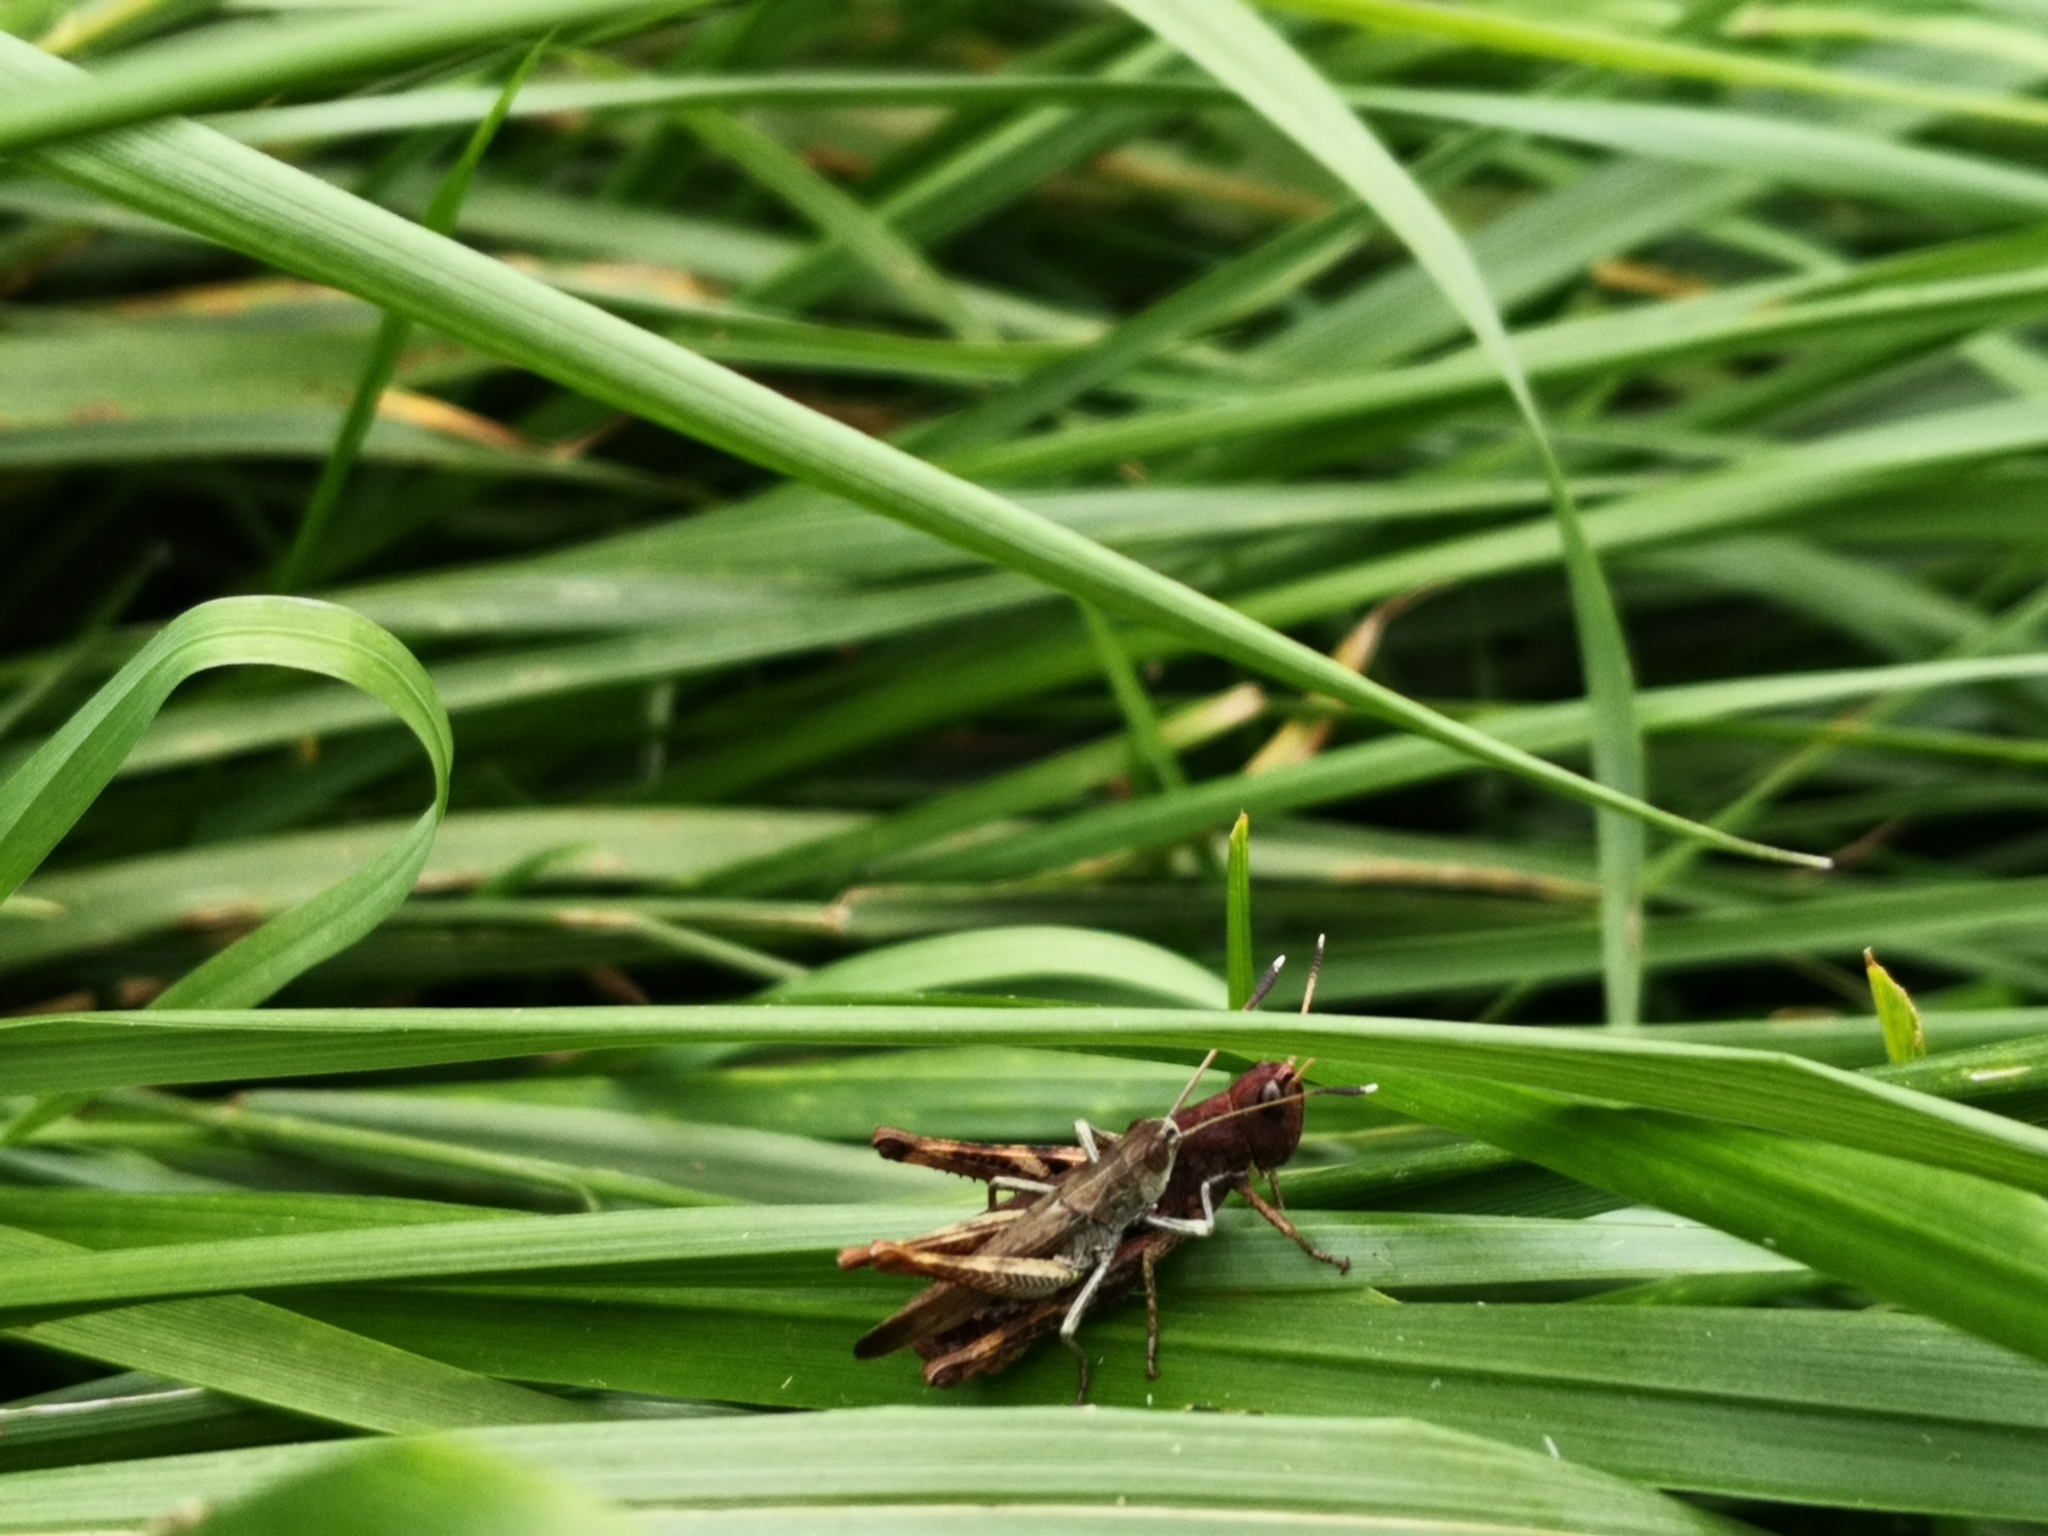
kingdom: Animalia
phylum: Arthropoda
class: Insecta
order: Orthoptera
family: Acrididae
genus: Gomphocerippus
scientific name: Gomphocerippus rufus
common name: Rufous grasshopper
